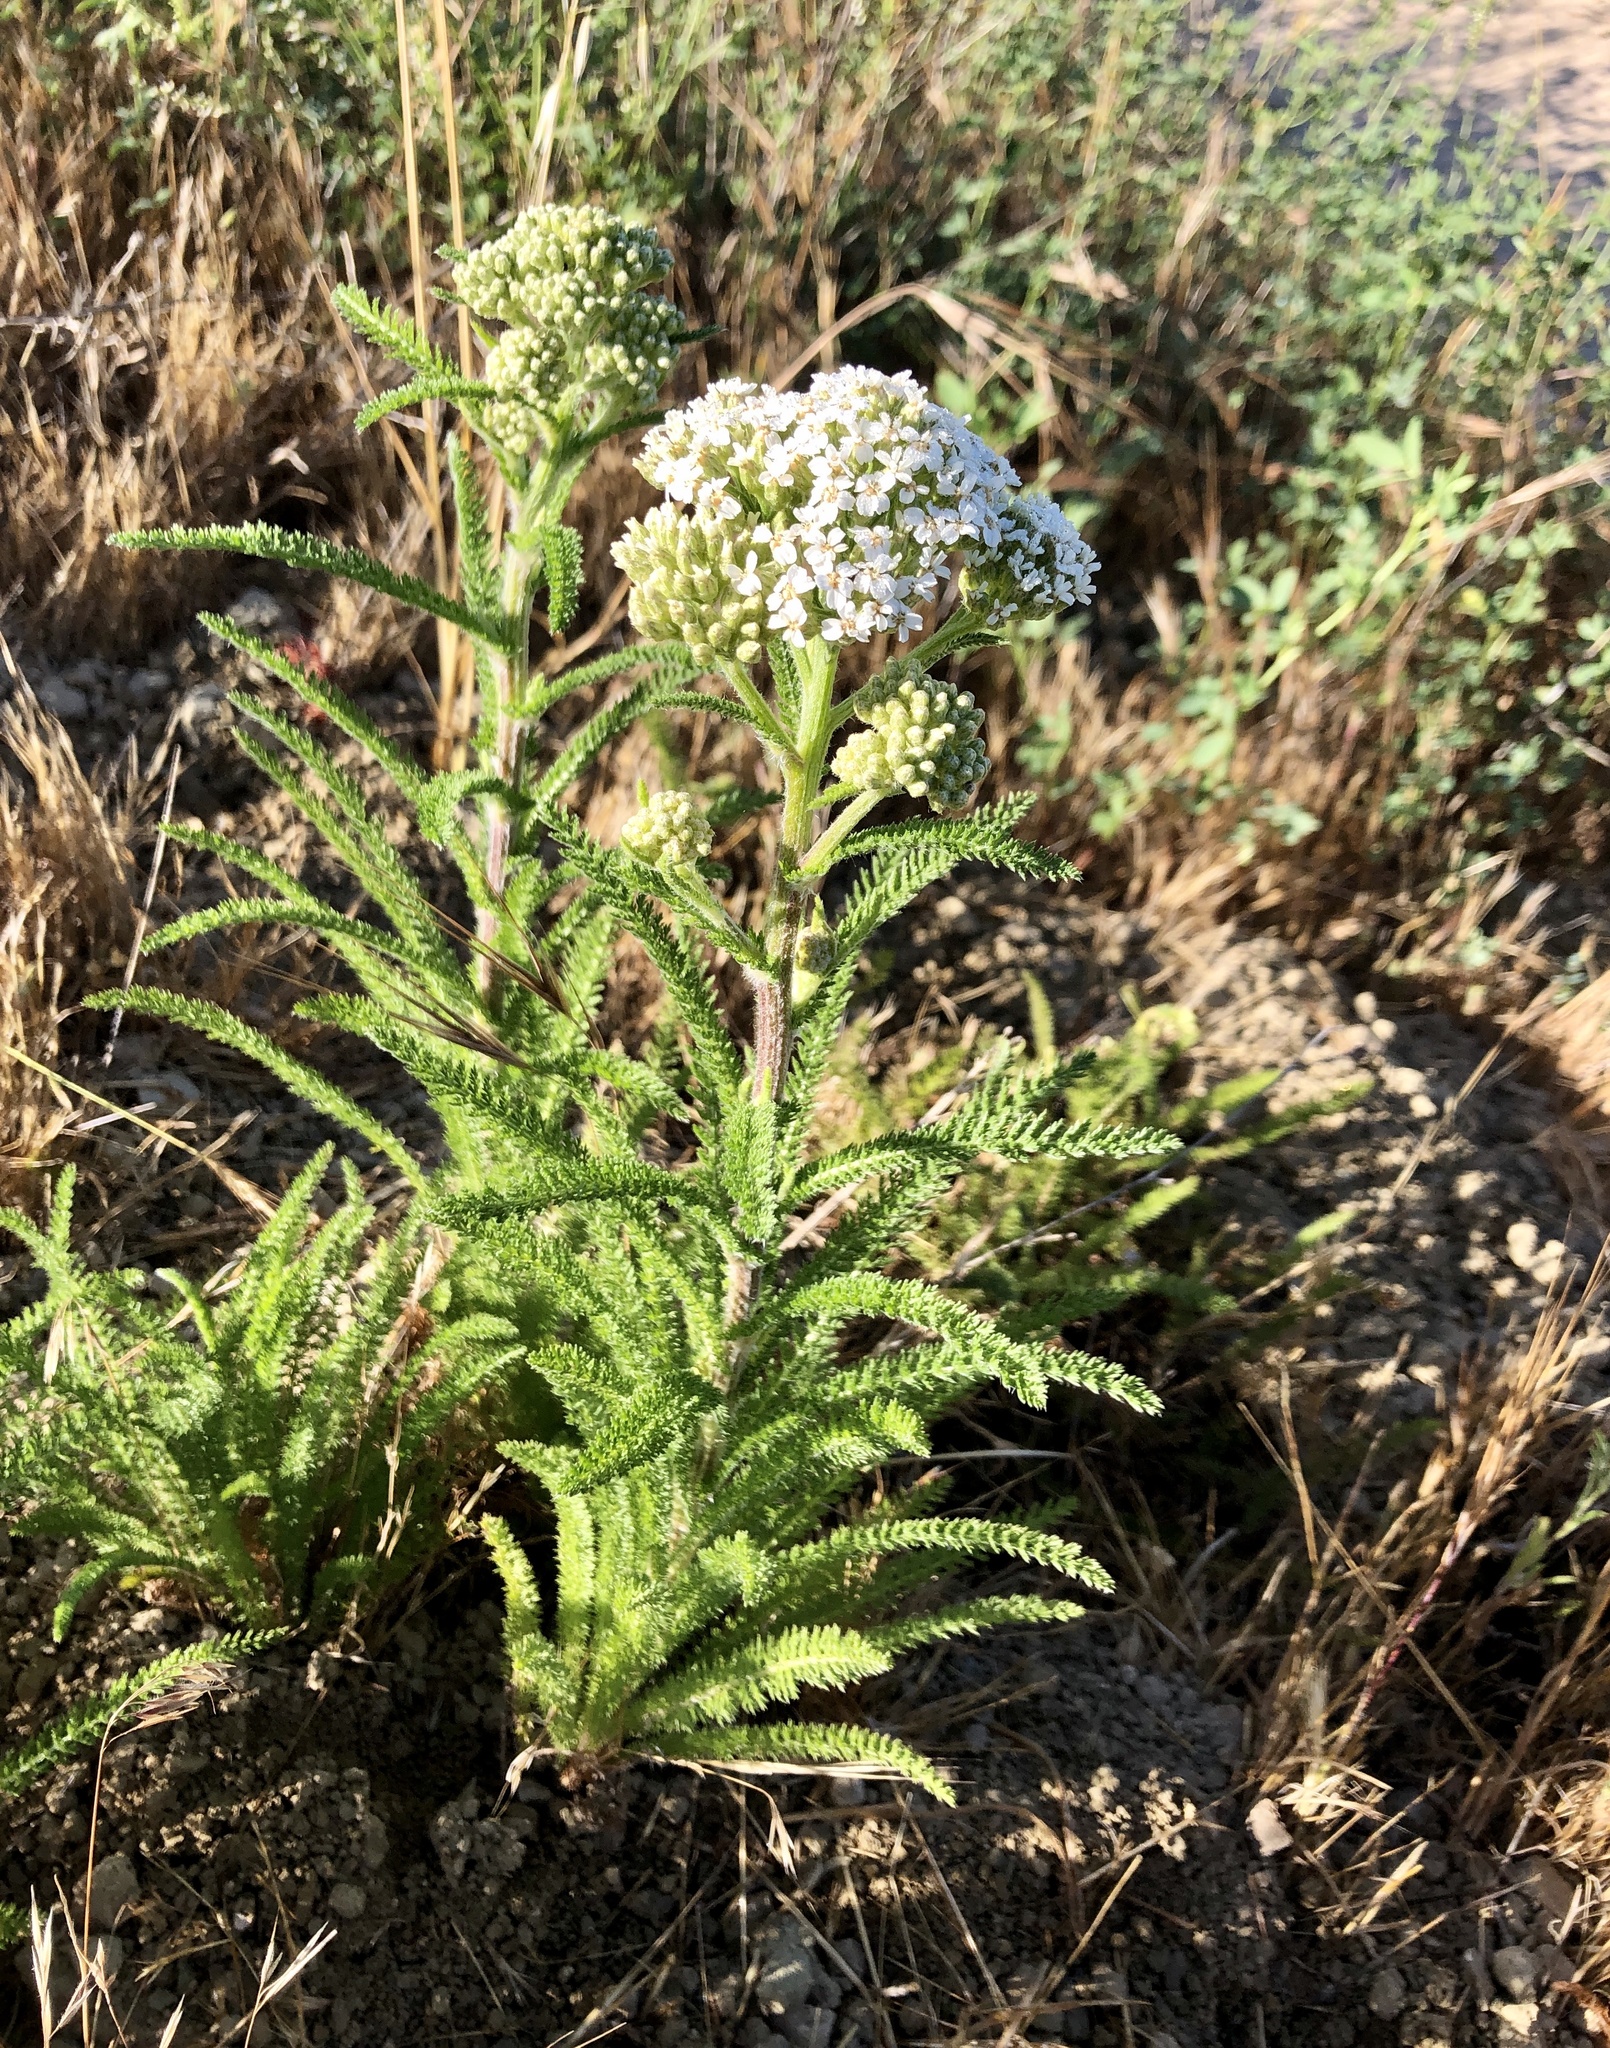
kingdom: Plantae
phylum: Tracheophyta
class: Magnoliopsida
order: Asterales
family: Asteraceae
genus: Achillea
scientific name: Achillea millefolium
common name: Yarrow
